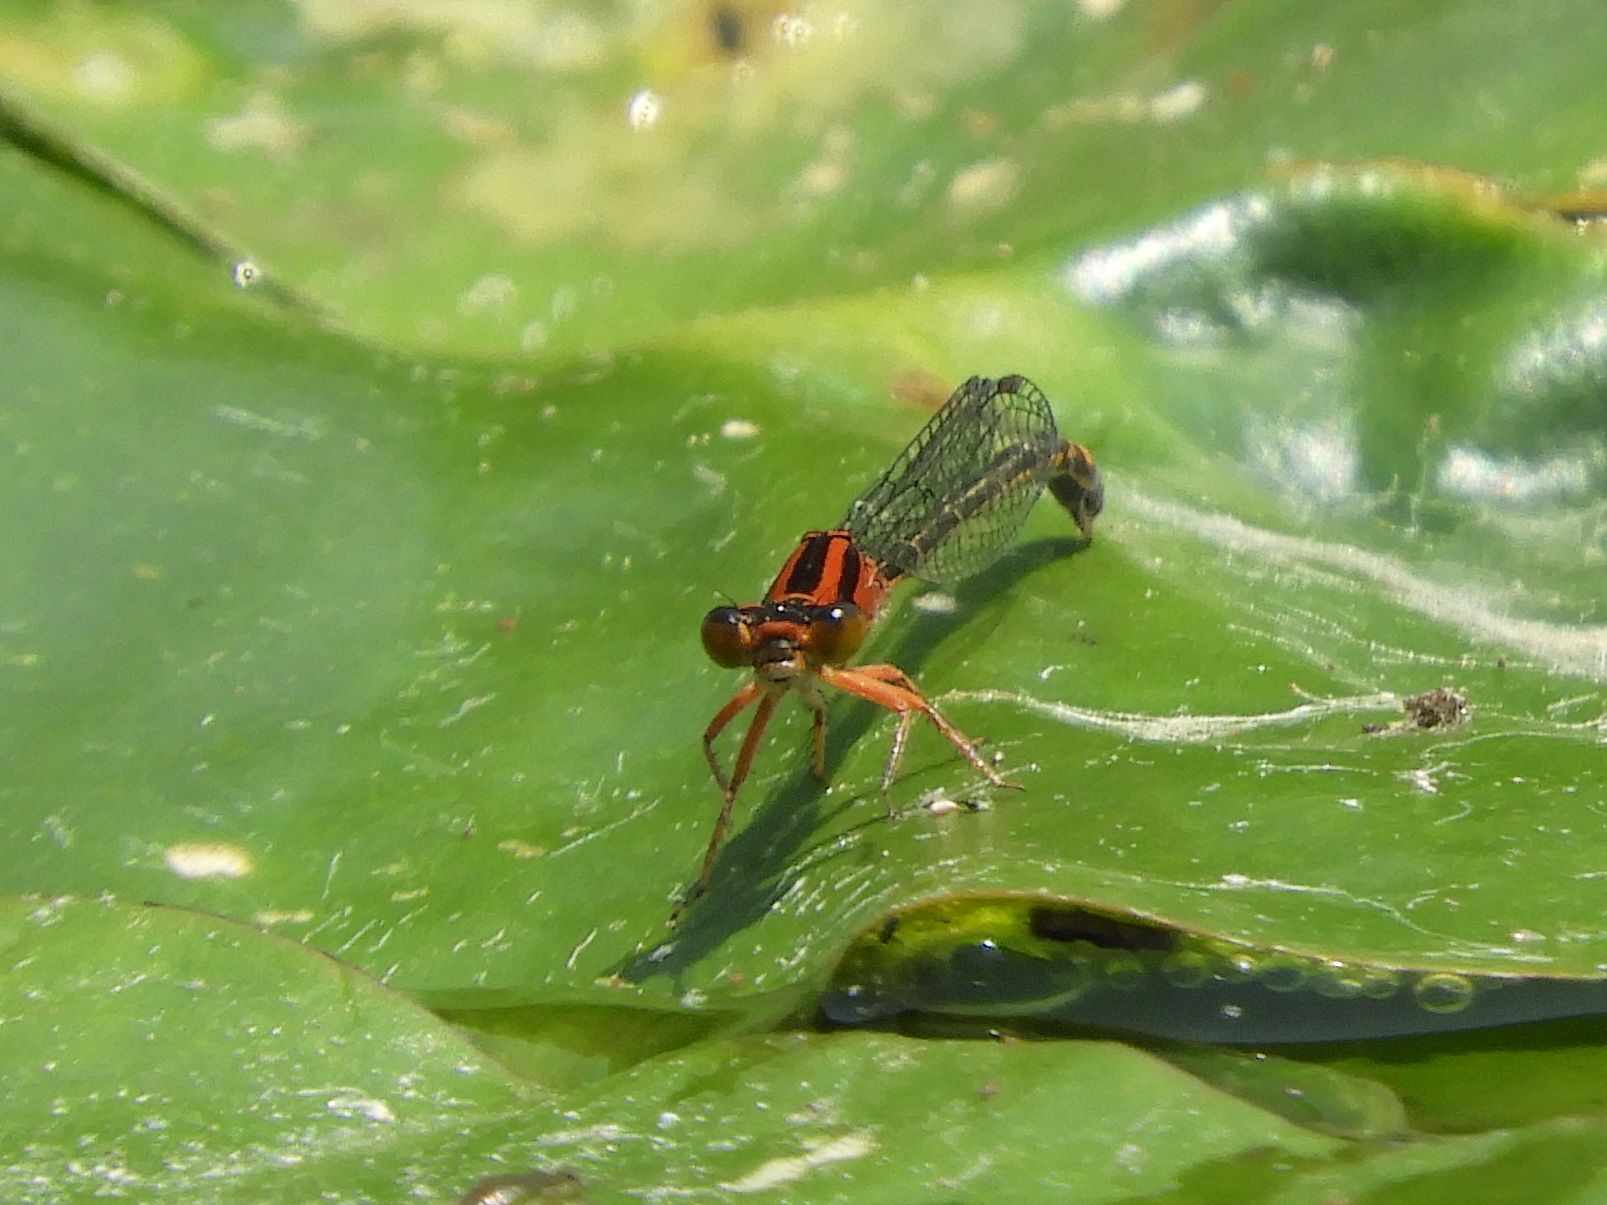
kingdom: Animalia
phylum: Arthropoda
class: Insecta
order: Odonata
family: Coenagrionidae
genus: Ischnura
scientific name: Ischnura kellicotti
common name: Lilypad forktail
